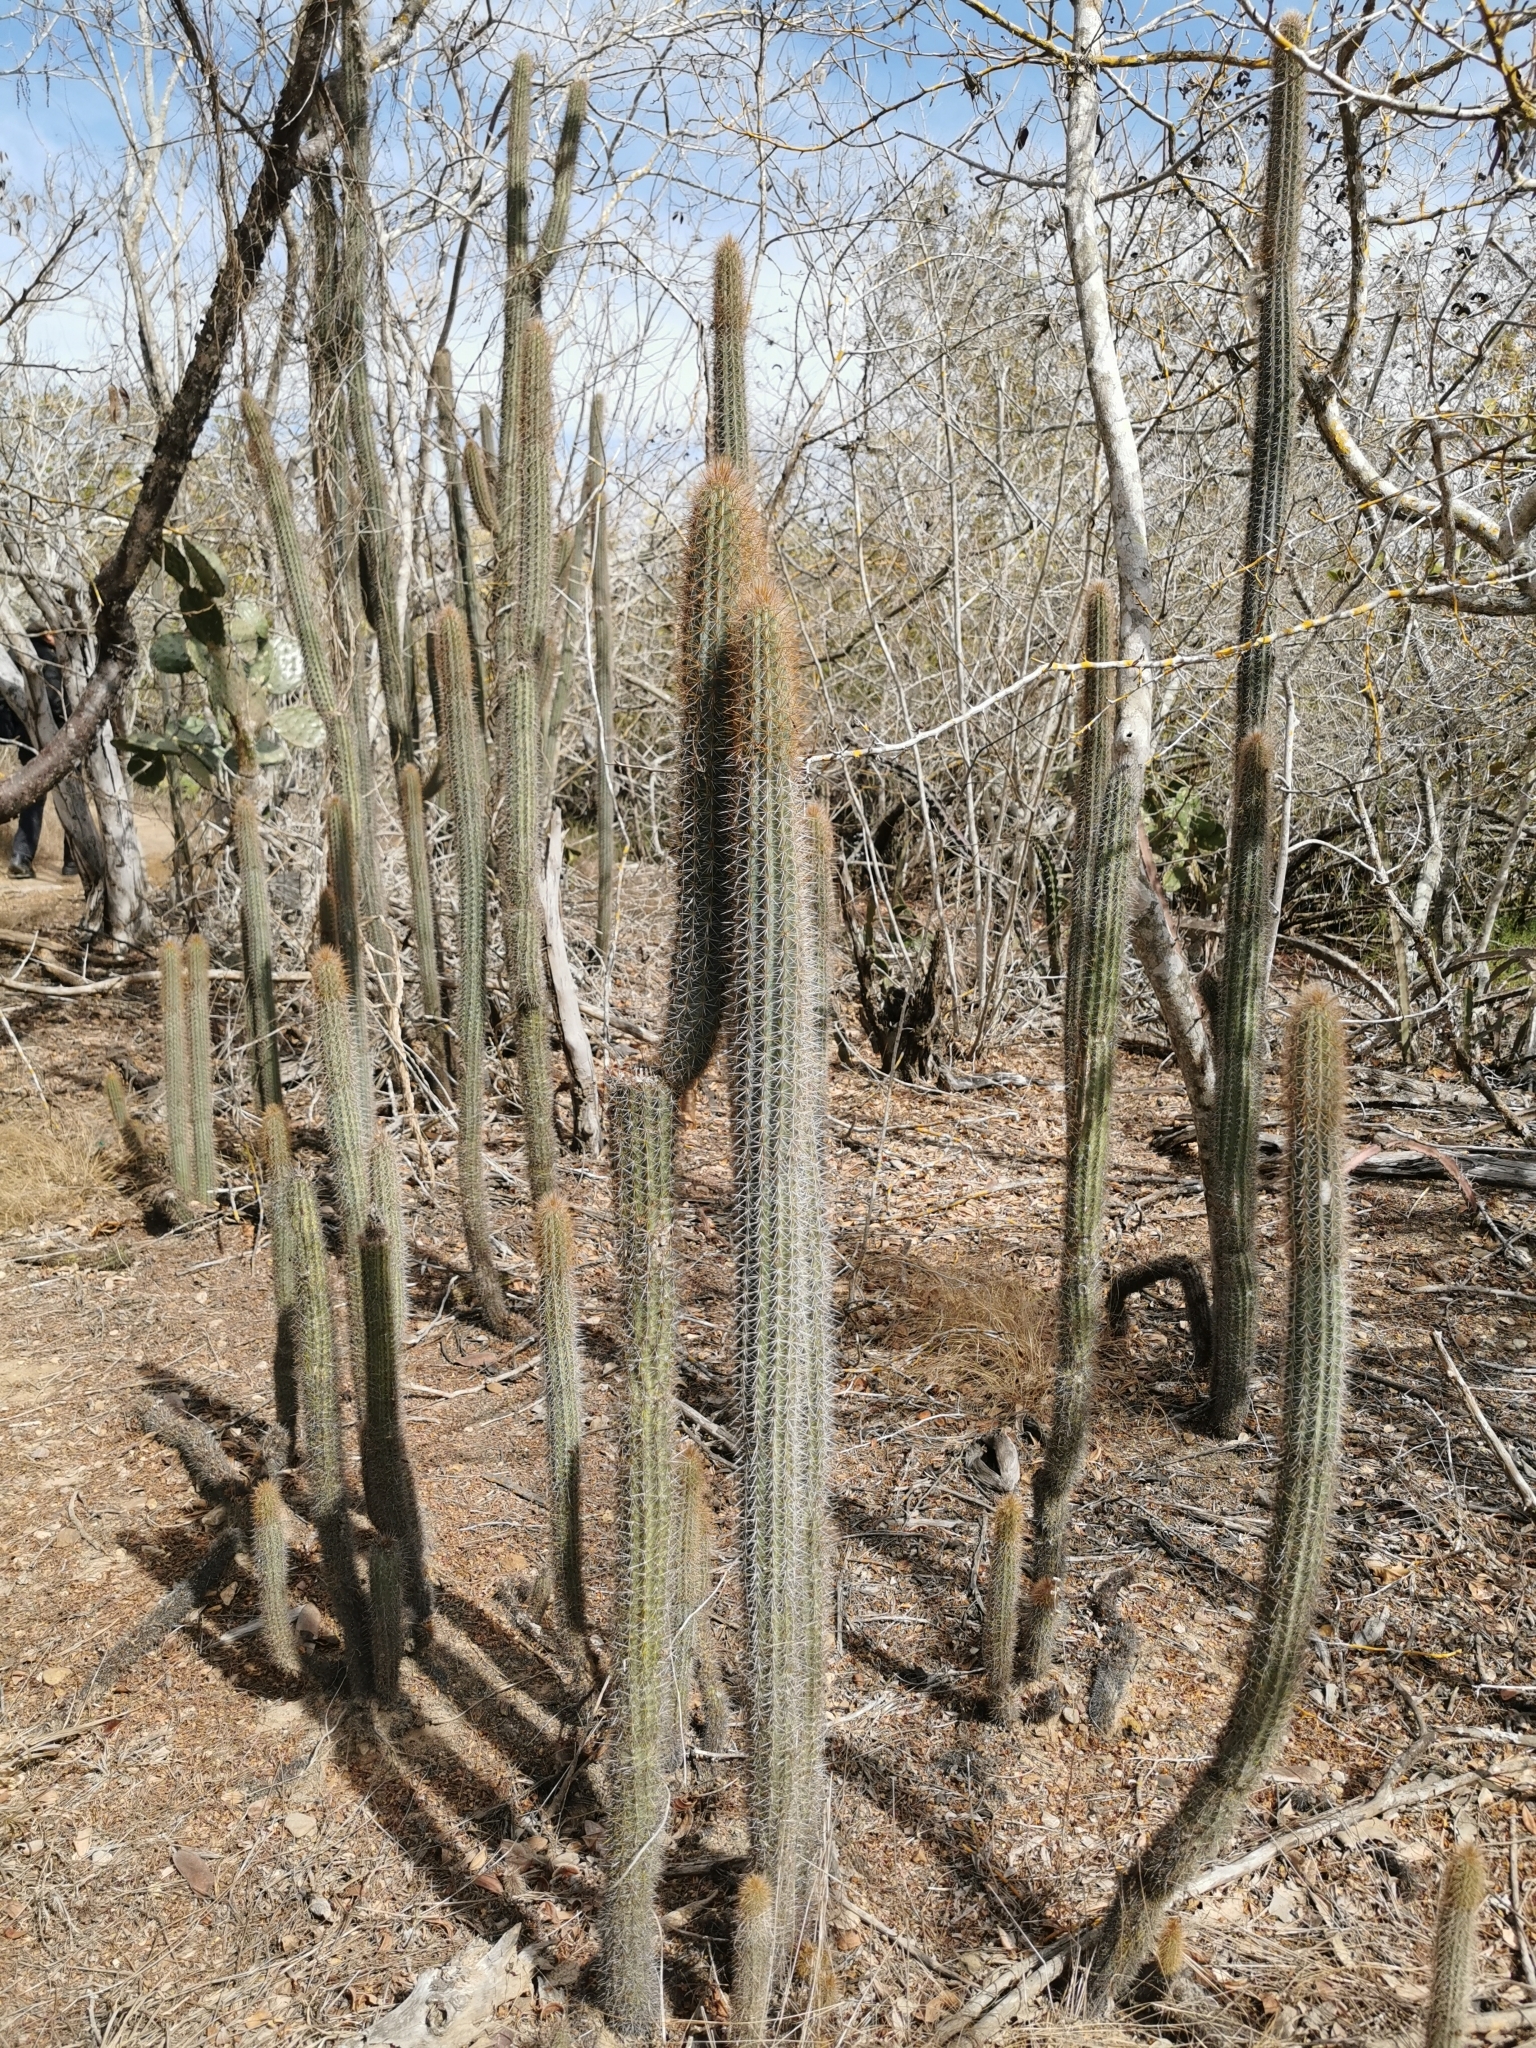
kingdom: Plantae
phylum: Tracheophyta
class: Magnoliopsida
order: Caryophyllales
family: Cactaceae
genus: Pilosocereus
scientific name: Pilosocereus purpusii
